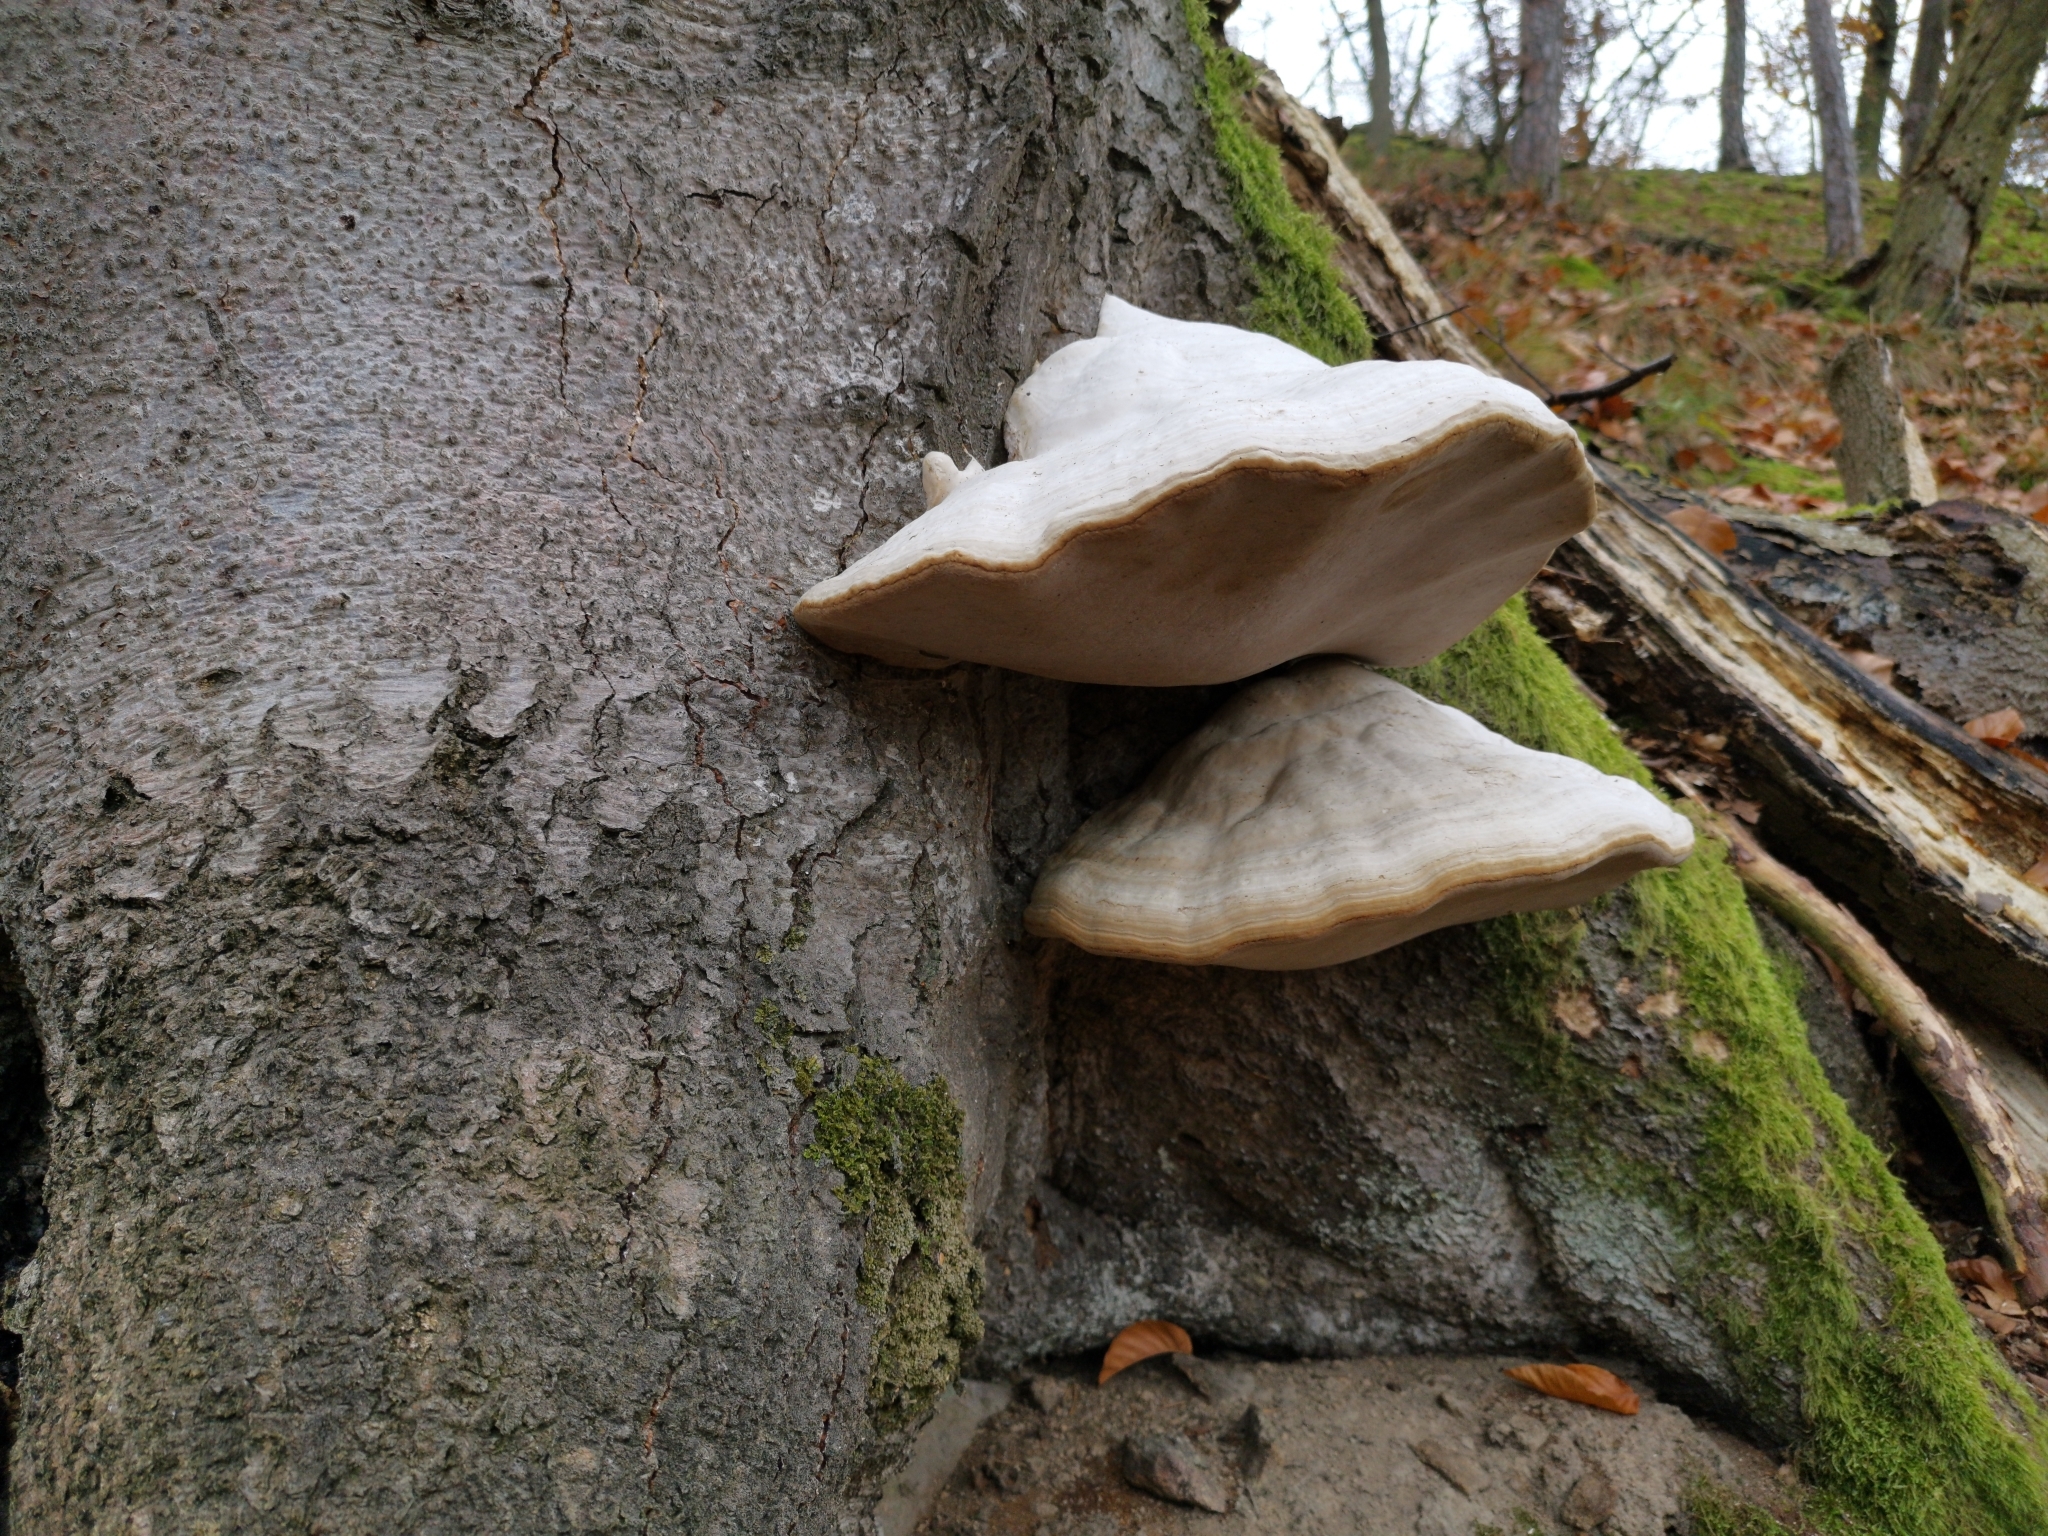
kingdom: Fungi
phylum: Basidiomycota
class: Agaricomycetes
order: Polyporales
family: Polyporaceae
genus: Fomes
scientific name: Fomes fomentarius
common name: Hoof fungus
